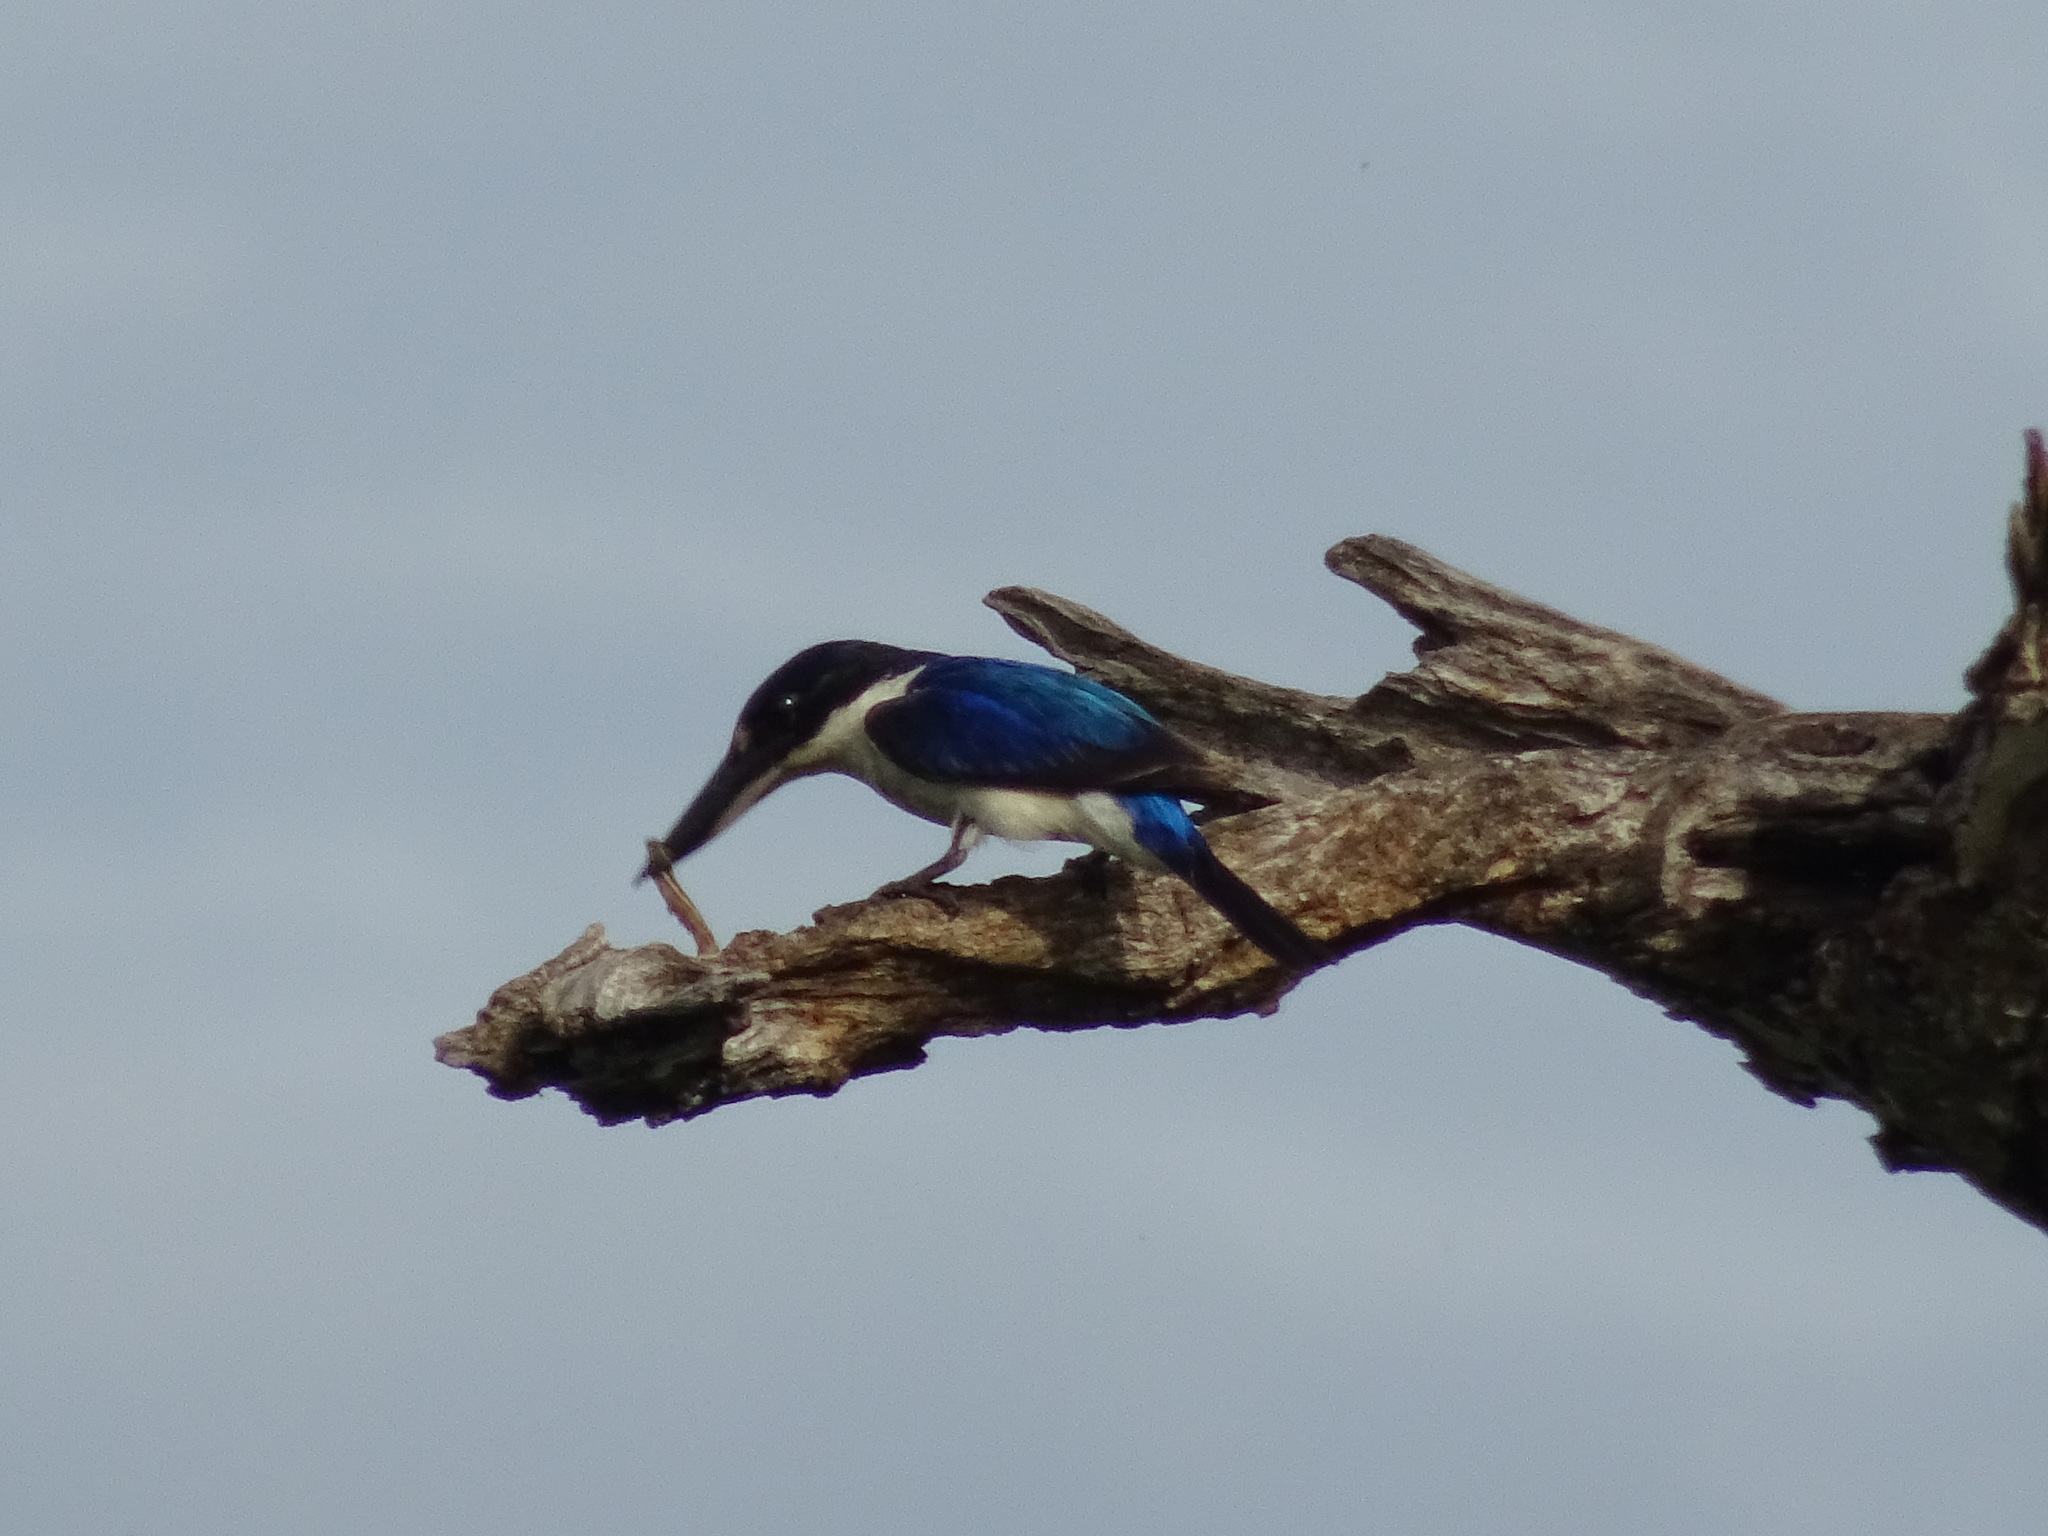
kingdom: Animalia
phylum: Chordata
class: Aves
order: Coraciiformes
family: Alcedinidae
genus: Todiramphus
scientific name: Todiramphus macleayii
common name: Forest kingfisher
